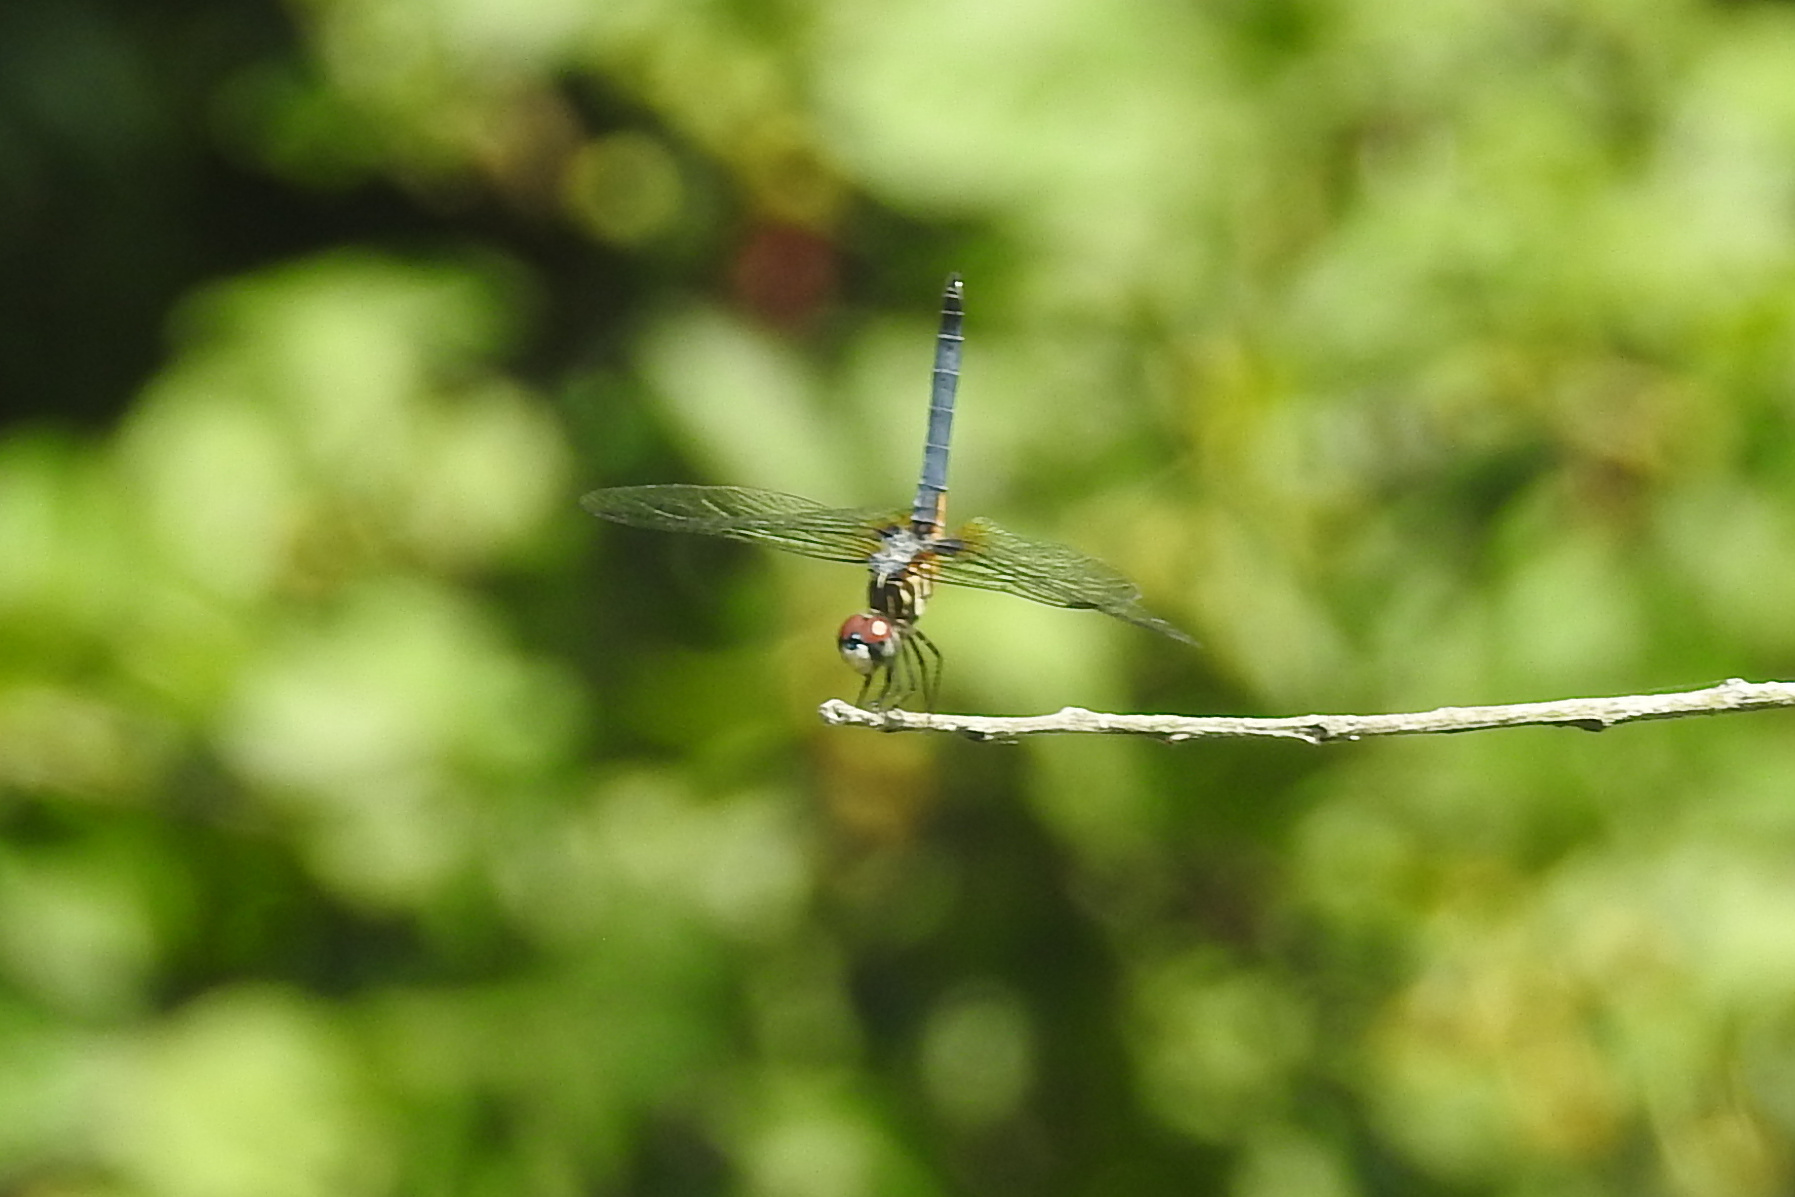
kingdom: Animalia
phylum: Arthropoda
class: Insecta
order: Odonata
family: Libellulidae
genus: Pachydiplax
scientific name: Pachydiplax longipennis
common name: Blue dasher
